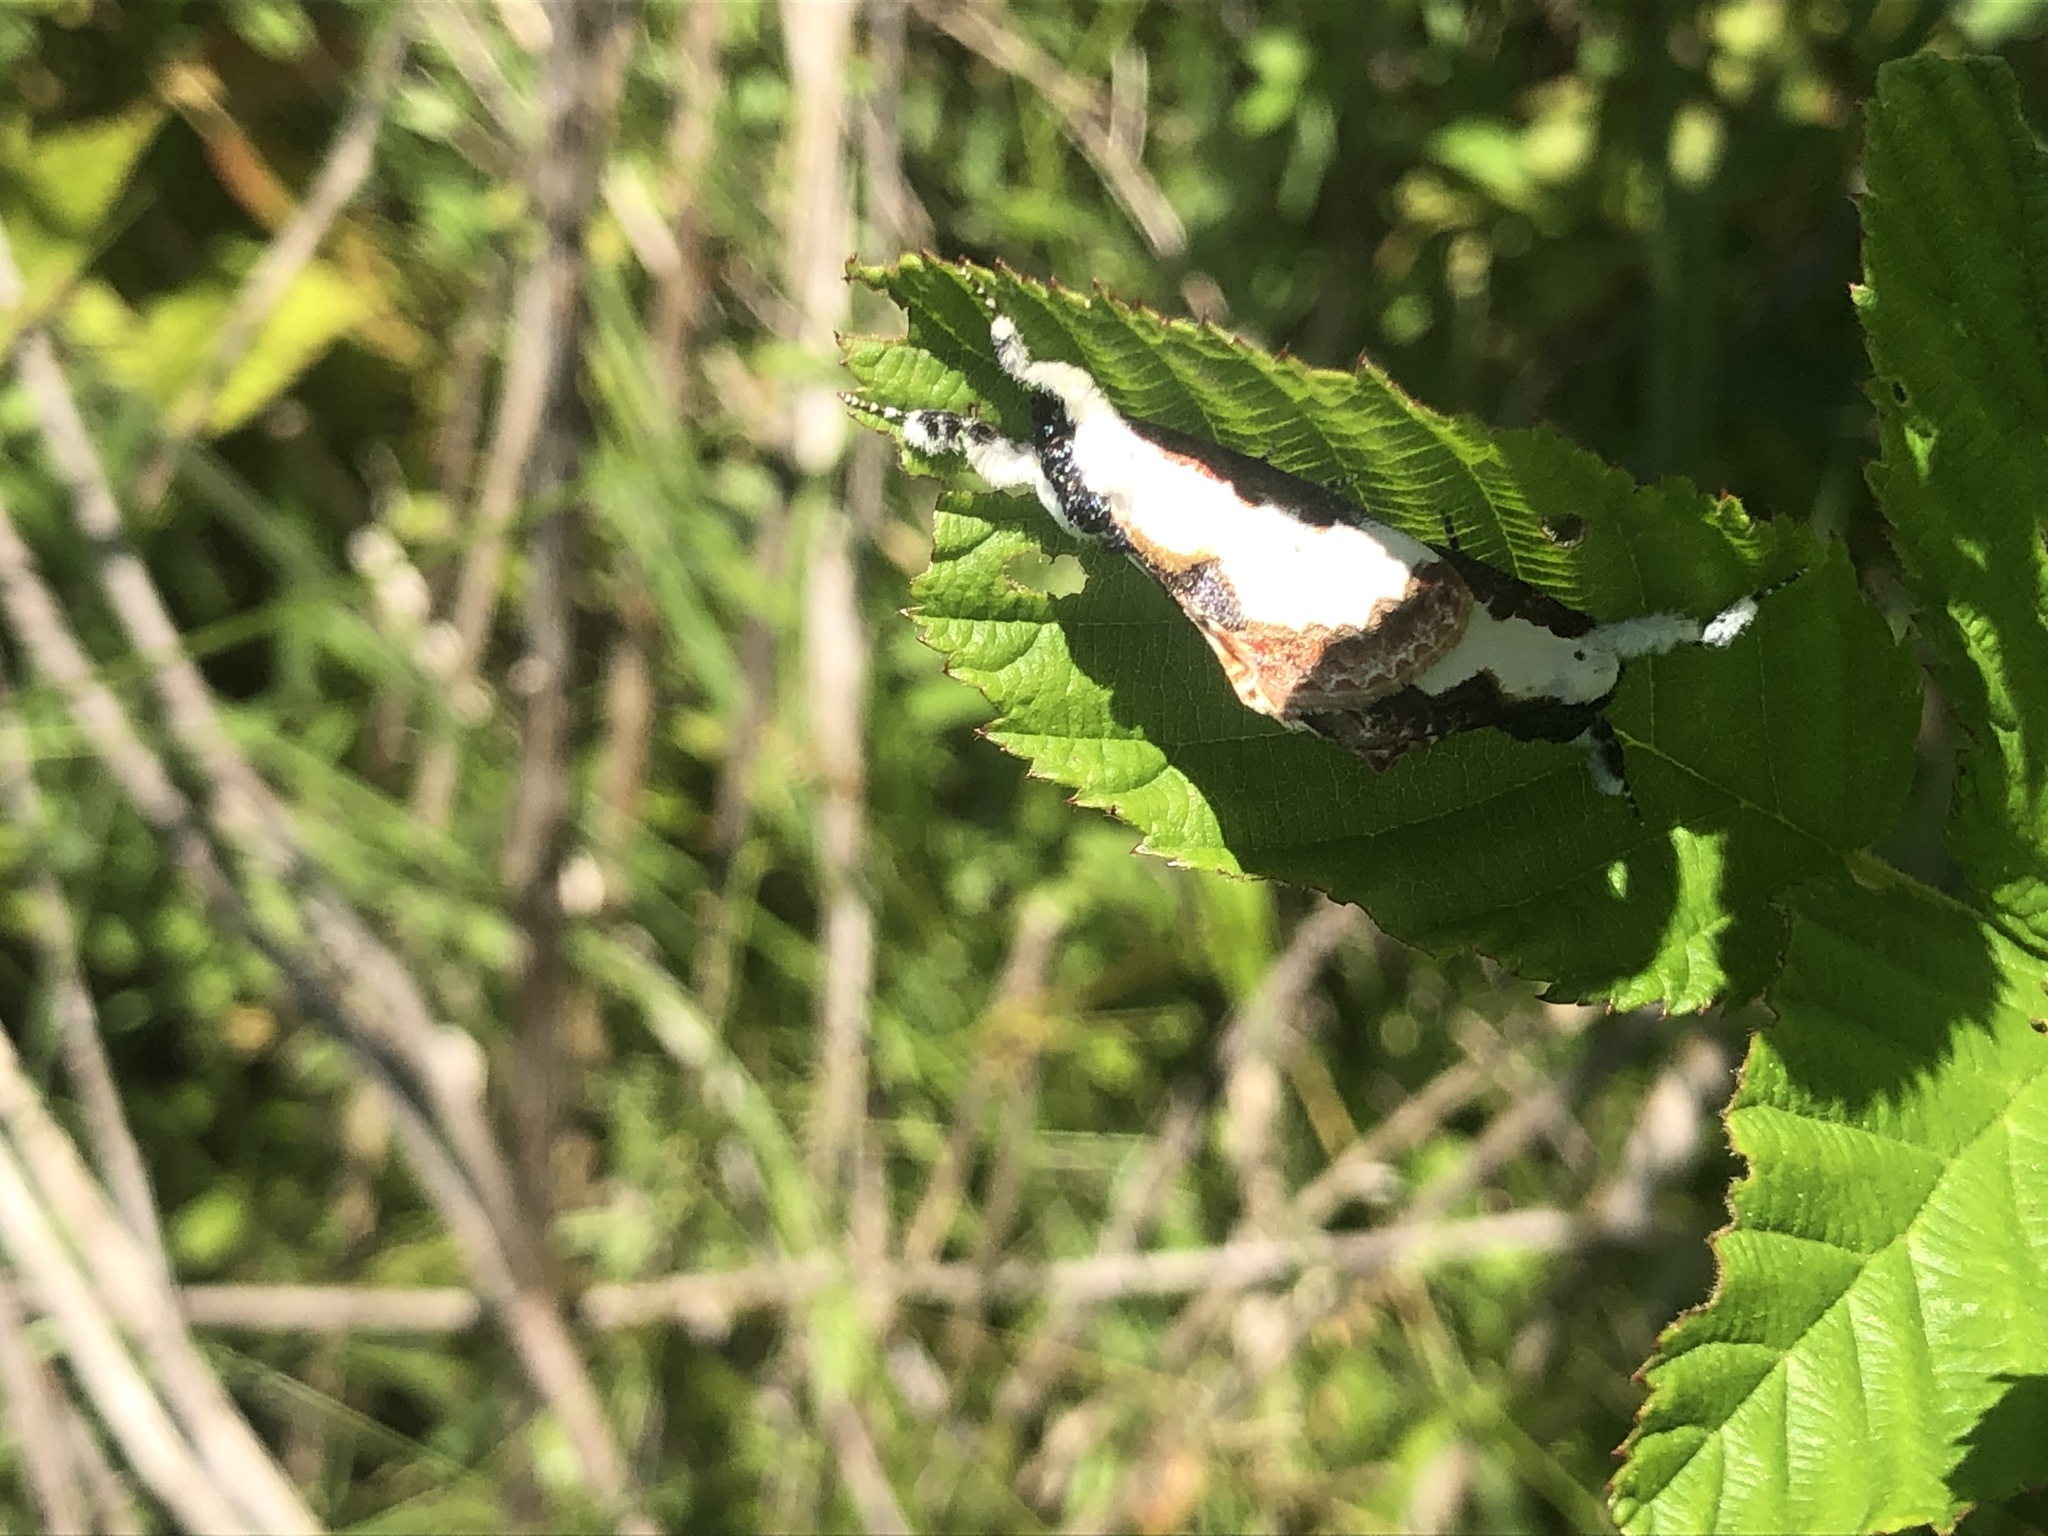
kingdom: Animalia
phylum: Arthropoda
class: Insecta
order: Lepidoptera
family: Noctuidae
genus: Eudryas
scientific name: Eudryas unio
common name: Pearly wood-nymph
